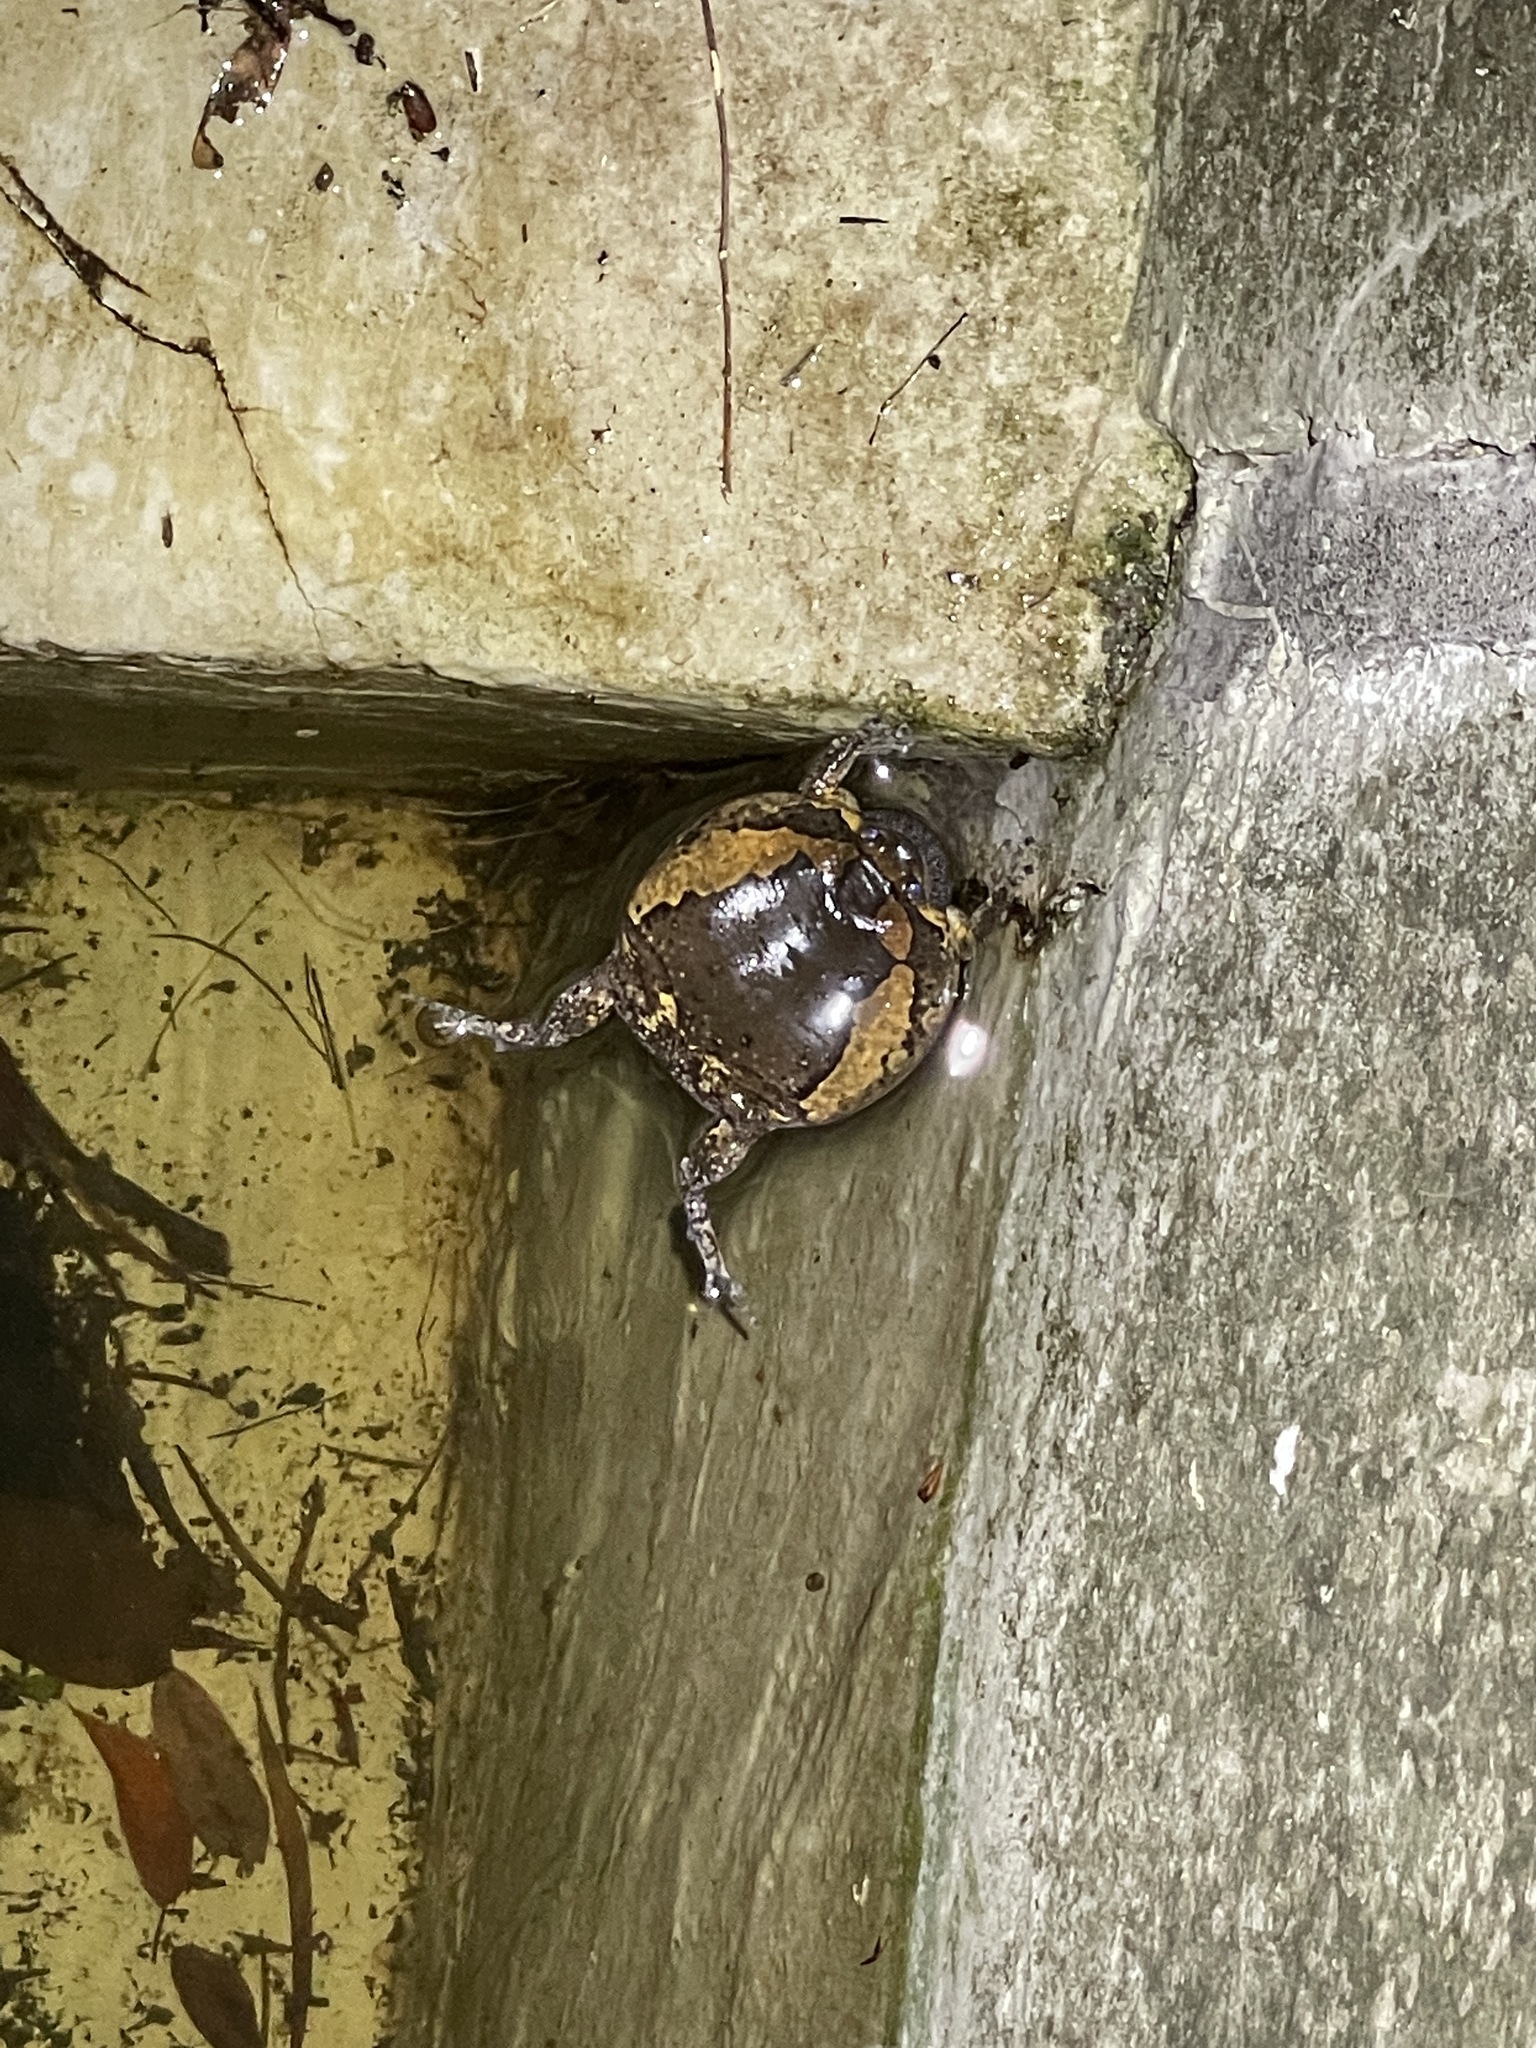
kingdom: Animalia
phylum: Chordata
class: Amphibia
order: Anura
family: Microhylidae
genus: Kaloula
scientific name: Kaloula pulchra
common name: Common,banded bullfrog
